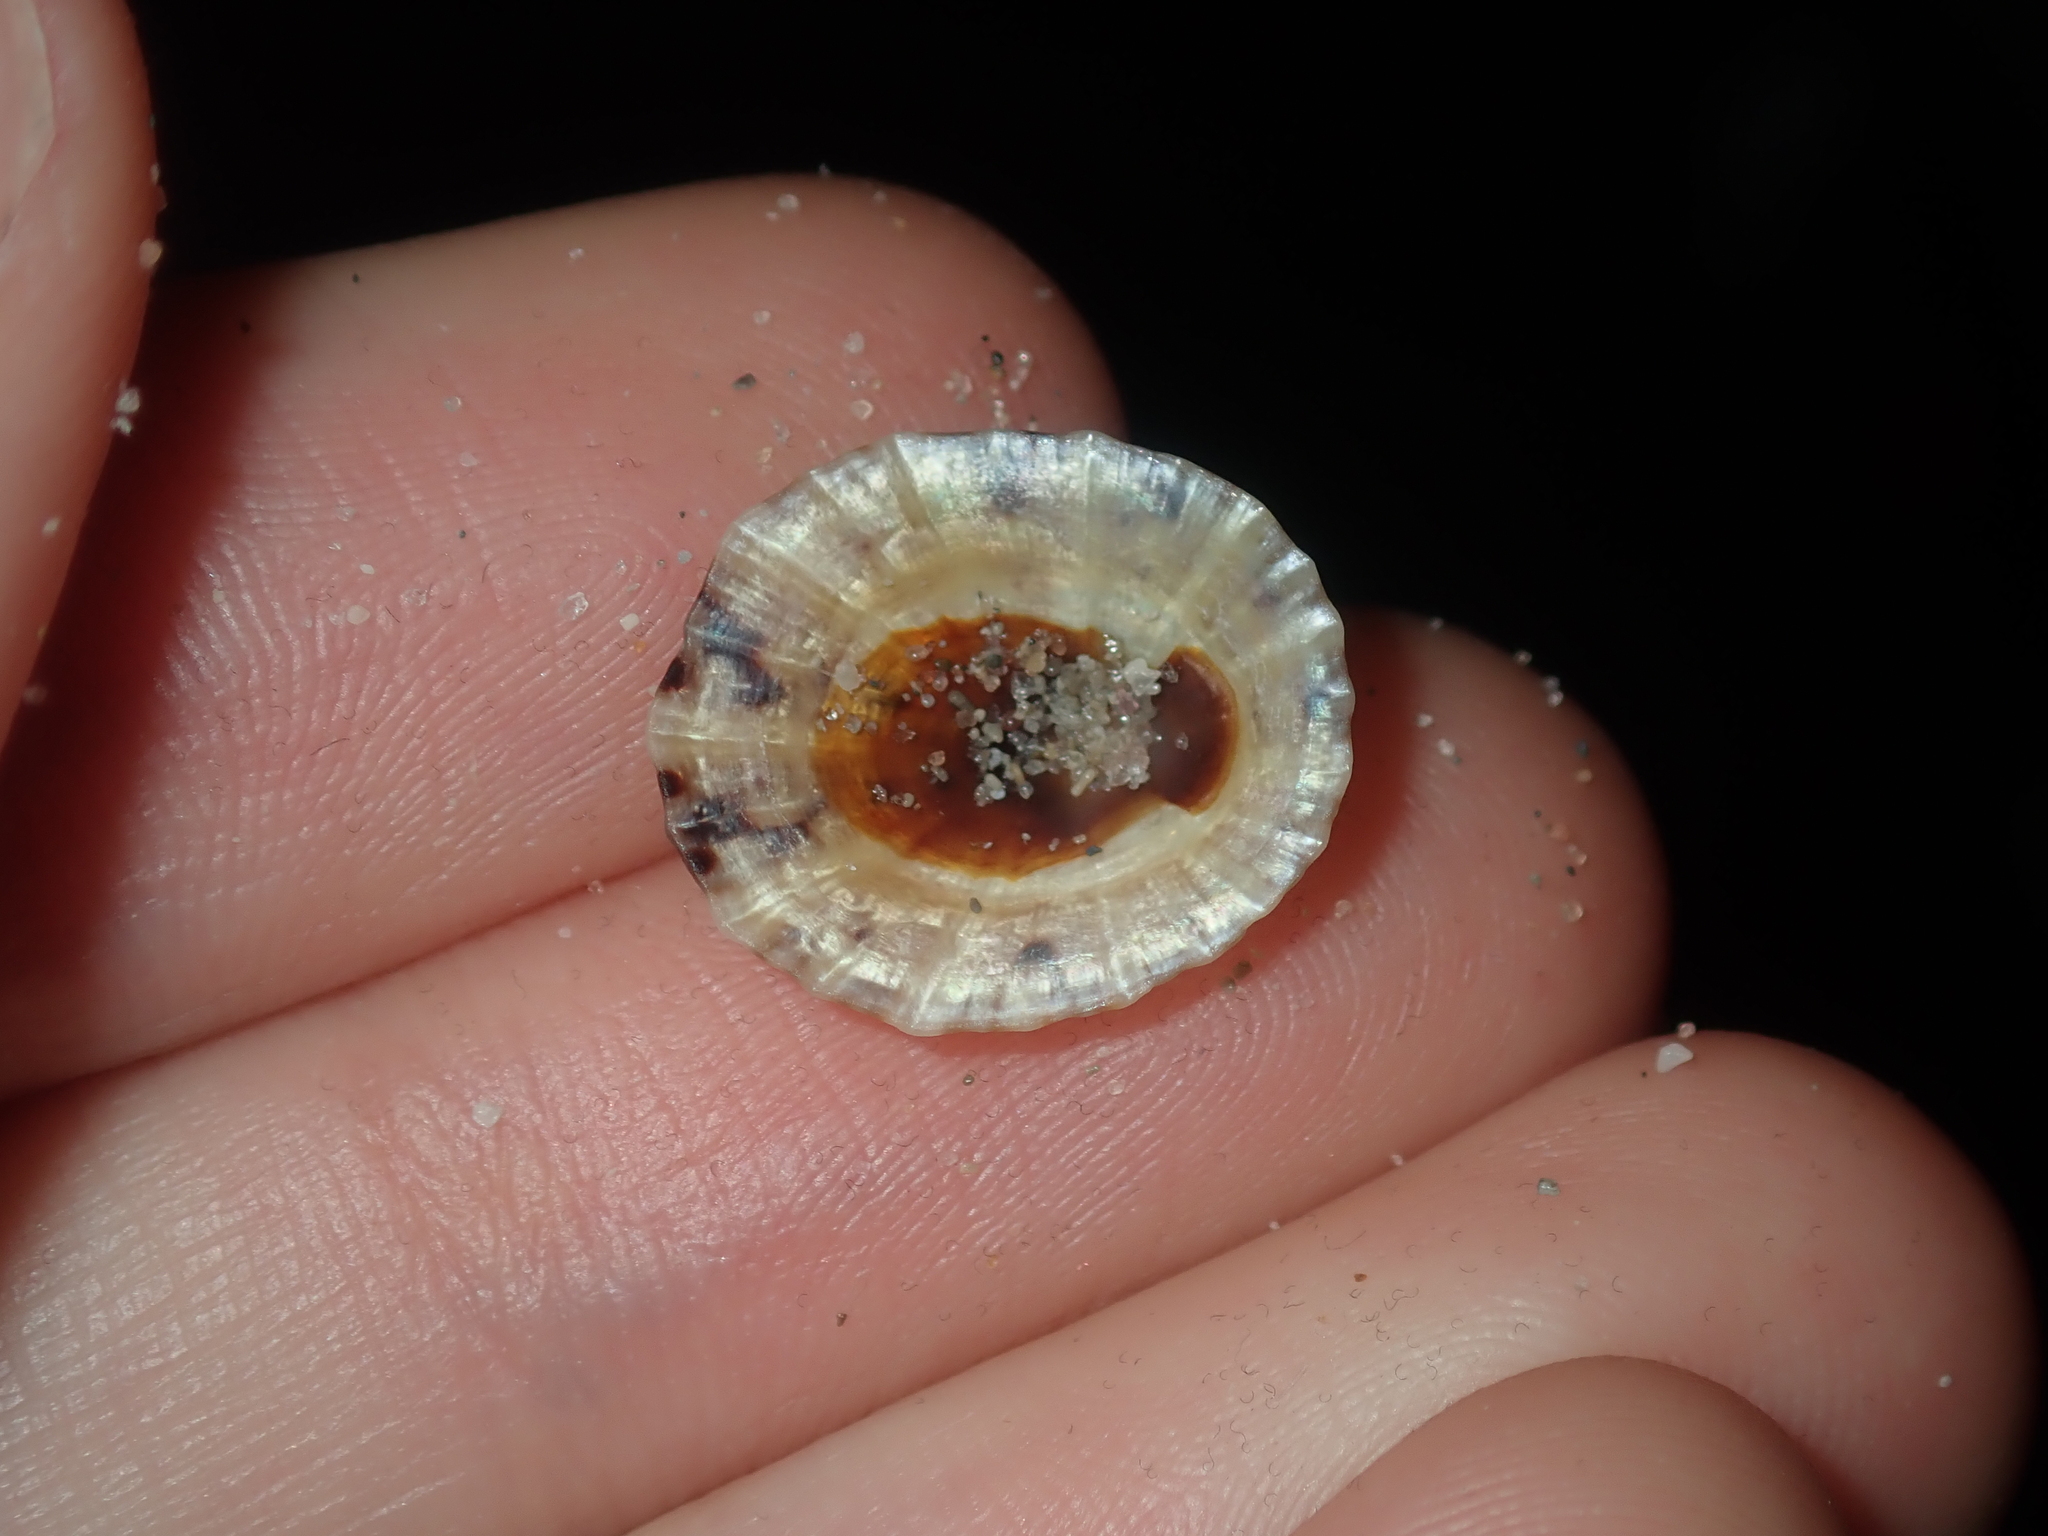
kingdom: Animalia
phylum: Mollusca
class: Gastropoda
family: Nacellidae
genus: Cellana
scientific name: Cellana radiata
